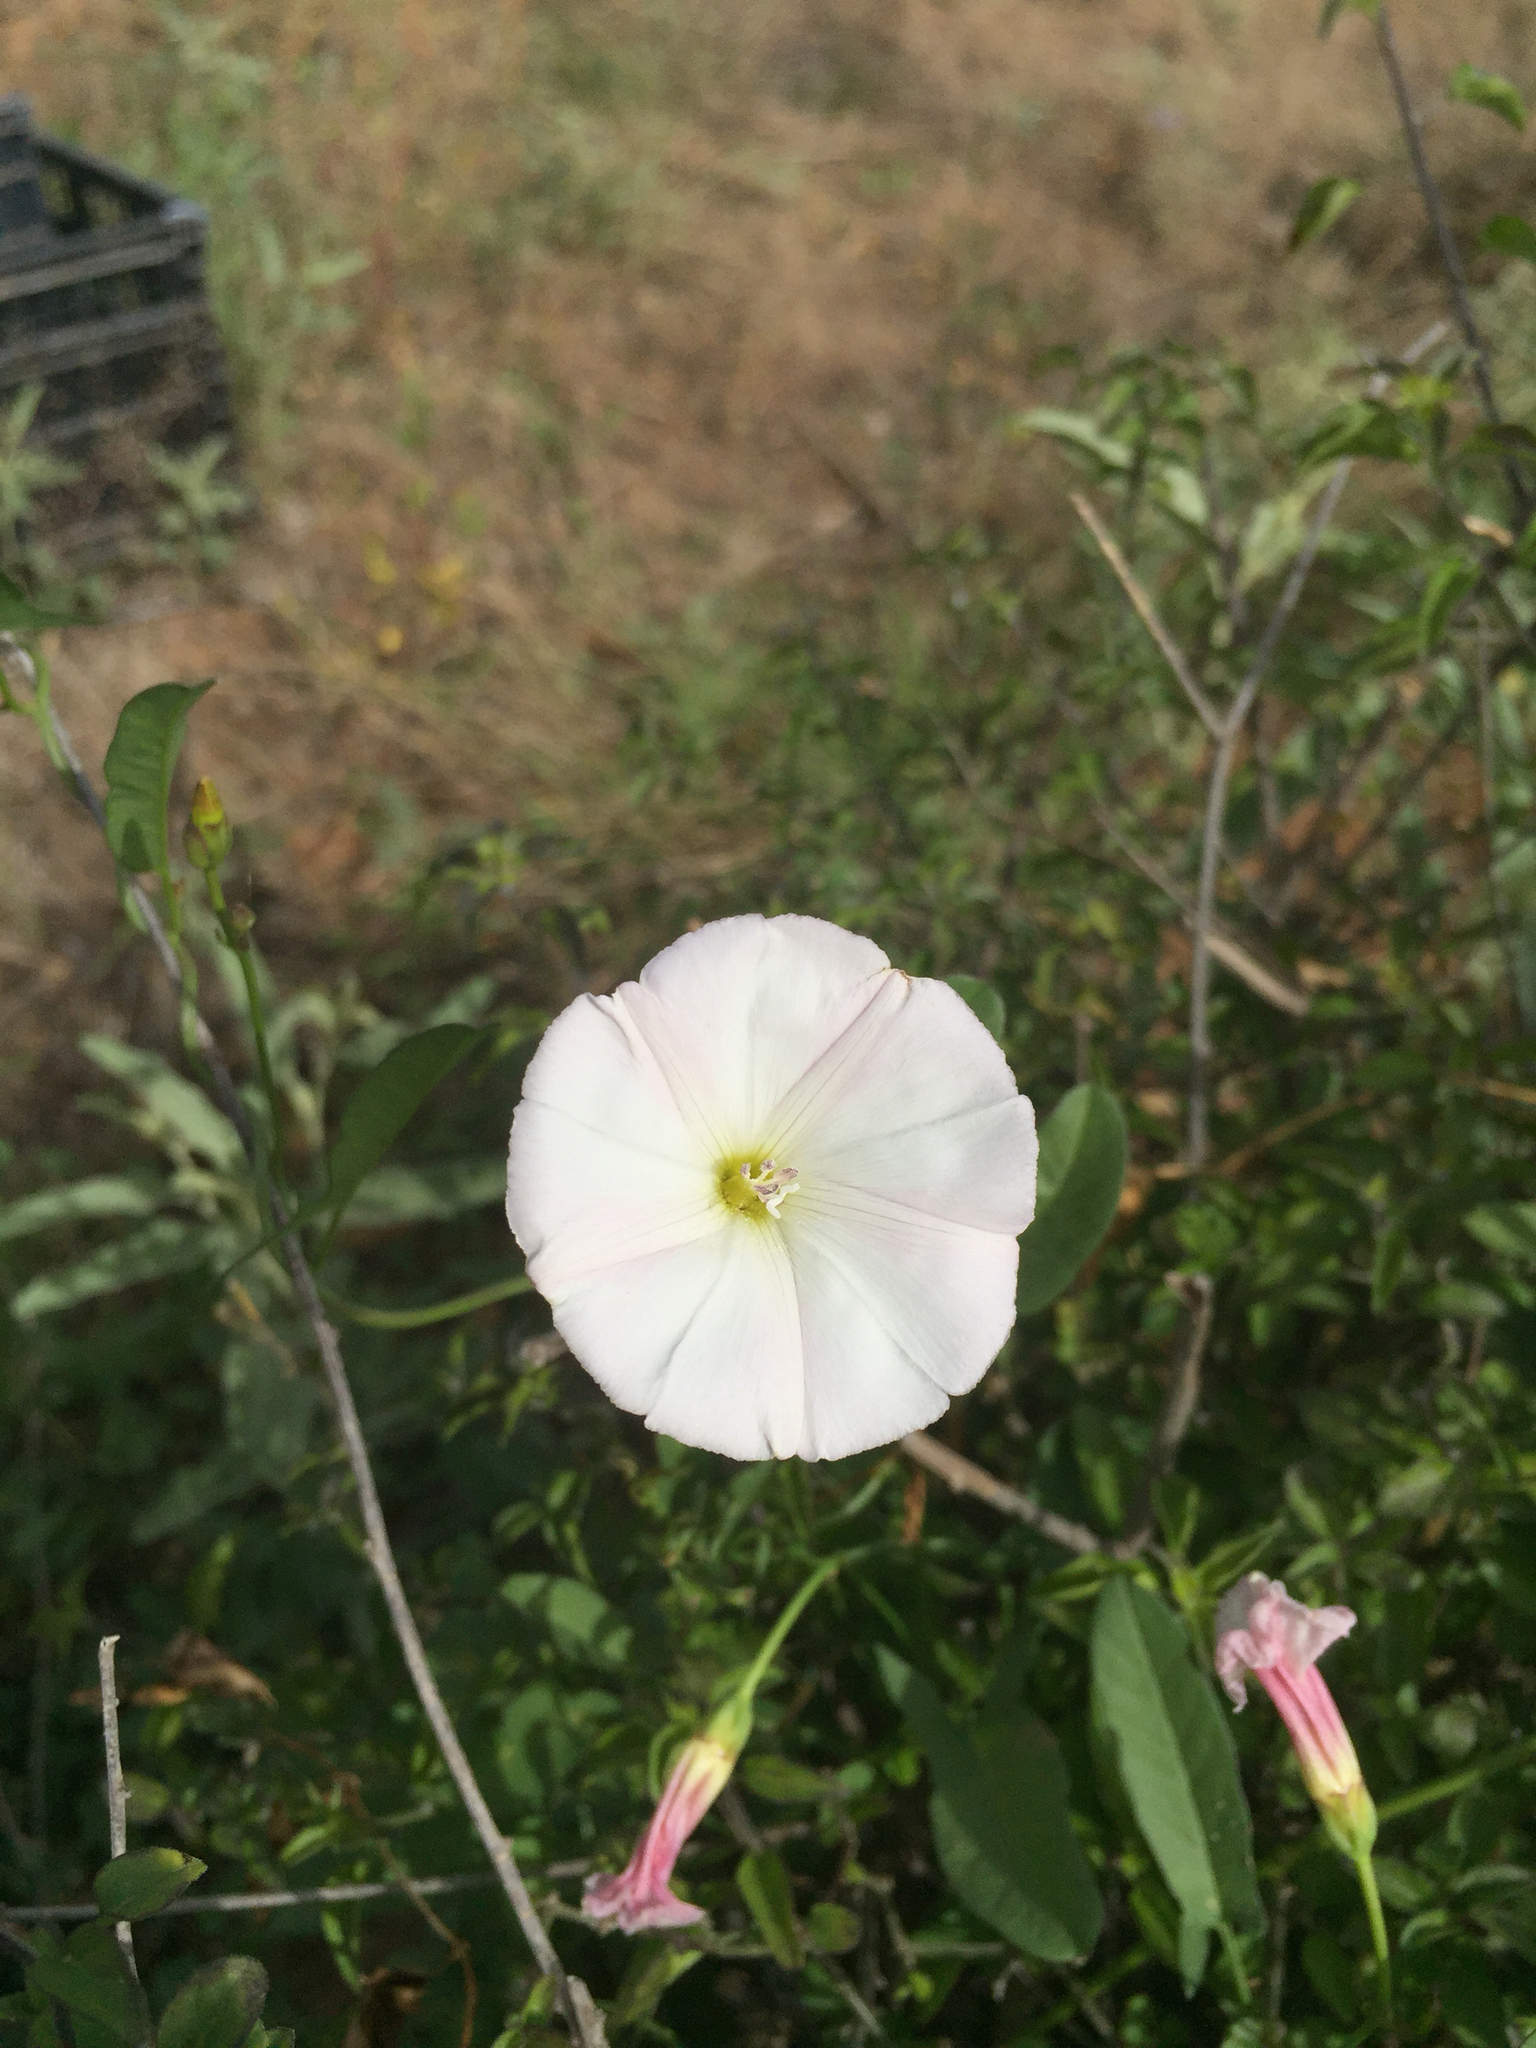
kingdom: Plantae
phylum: Tracheophyta
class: Magnoliopsida
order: Solanales
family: Convolvulaceae
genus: Convolvulus
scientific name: Convolvulus arvensis
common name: Field bindweed
